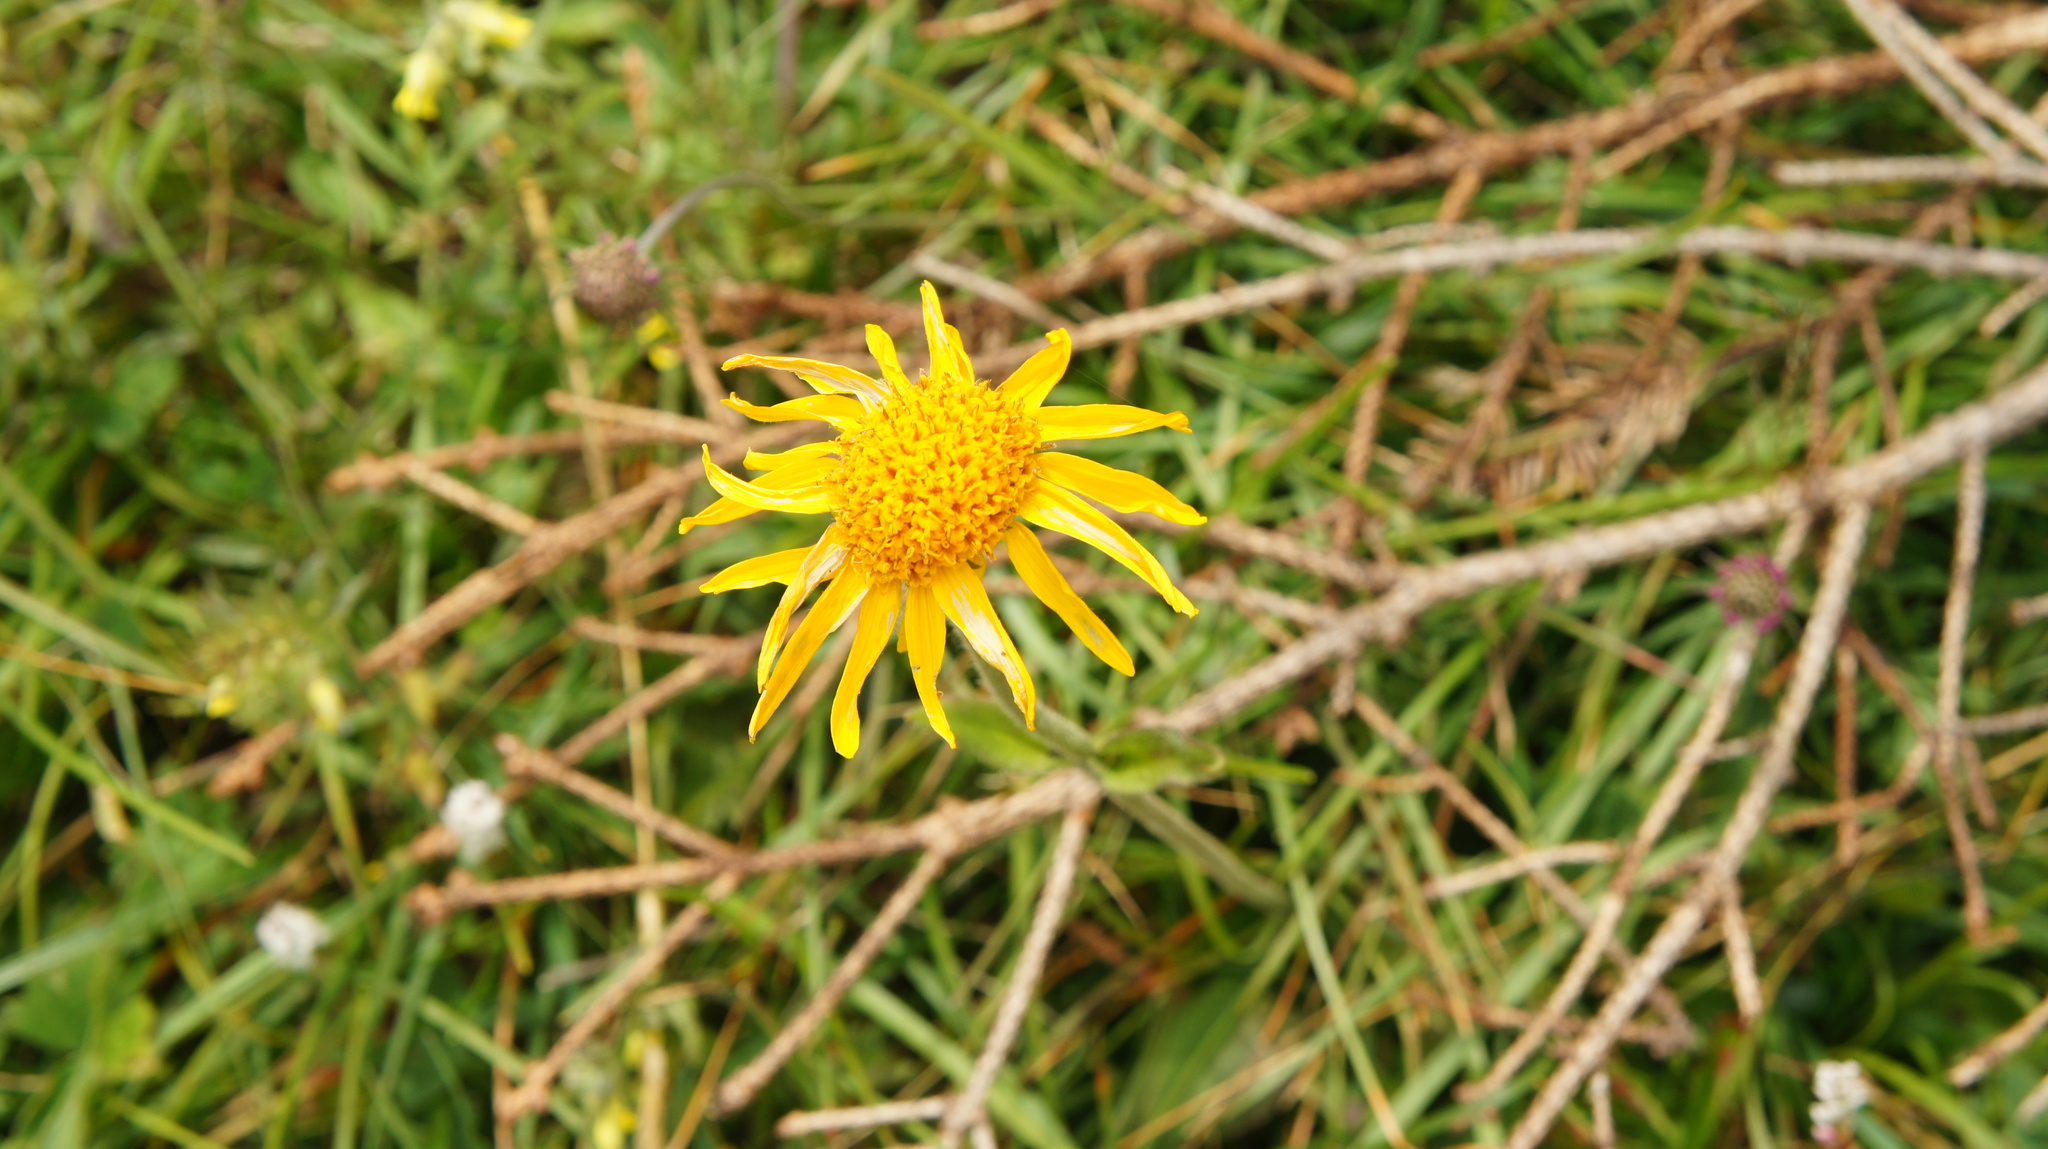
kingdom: Plantae
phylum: Tracheophyta
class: Magnoliopsida
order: Asterales
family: Asteraceae
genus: Arnica
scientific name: Arnica montana
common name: Leopard's bane
